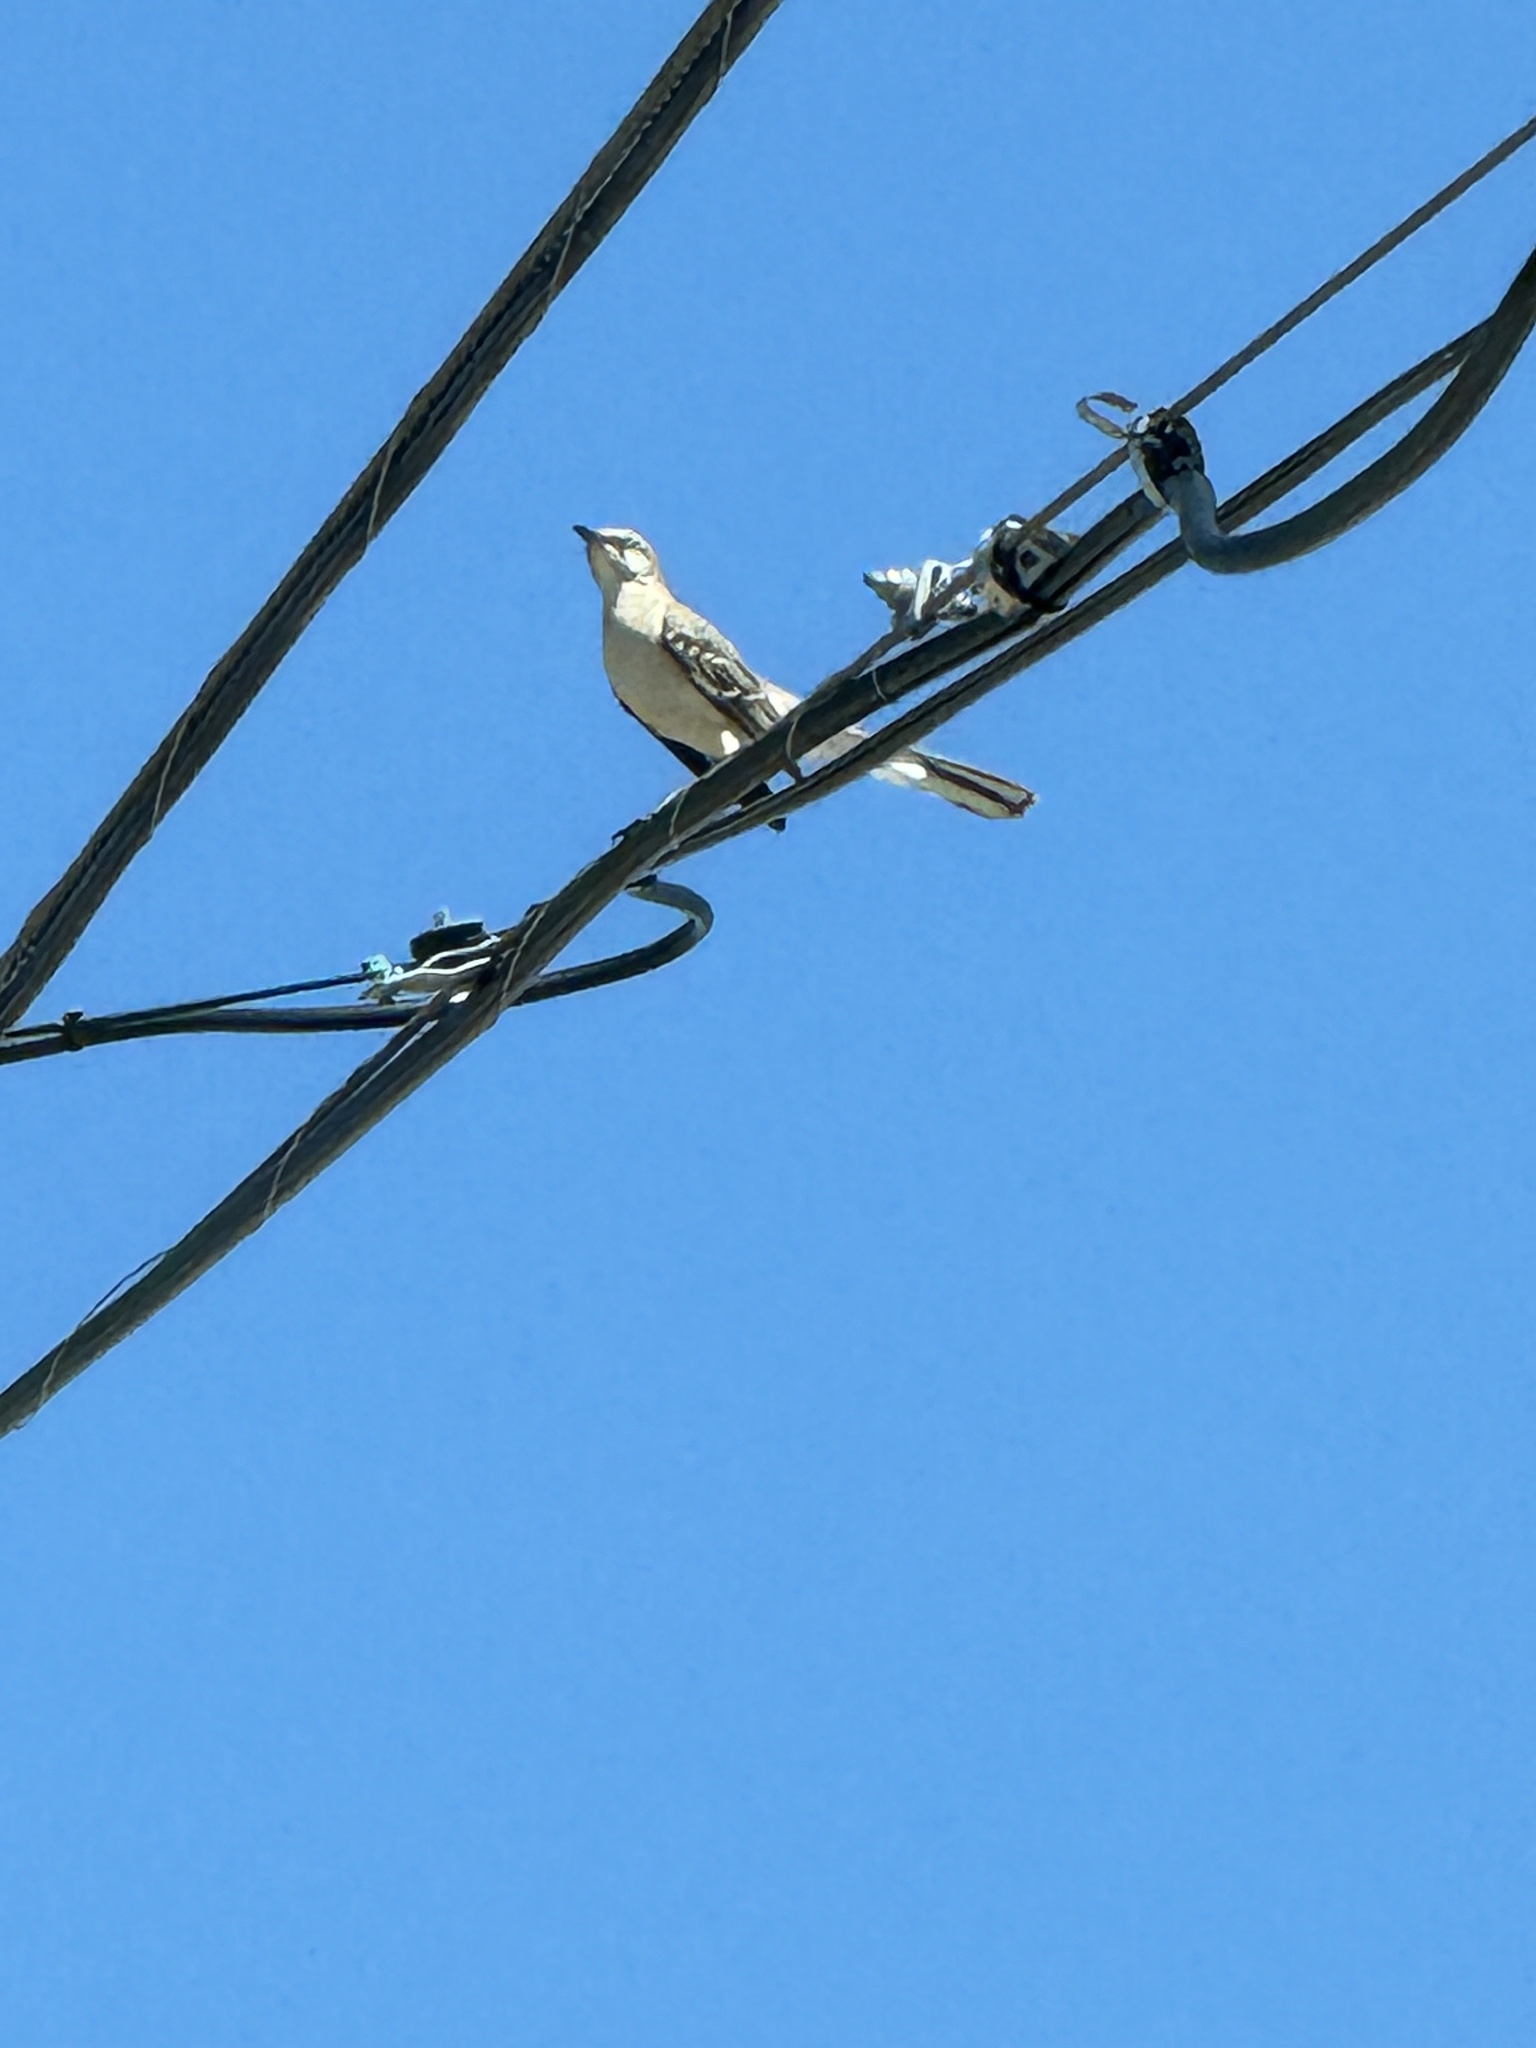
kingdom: Animalia
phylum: Chordata
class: Aves
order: Passeriformes
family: Mimidae
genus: Mimus
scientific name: Mimus polyglottos
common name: Northern mockingbird
